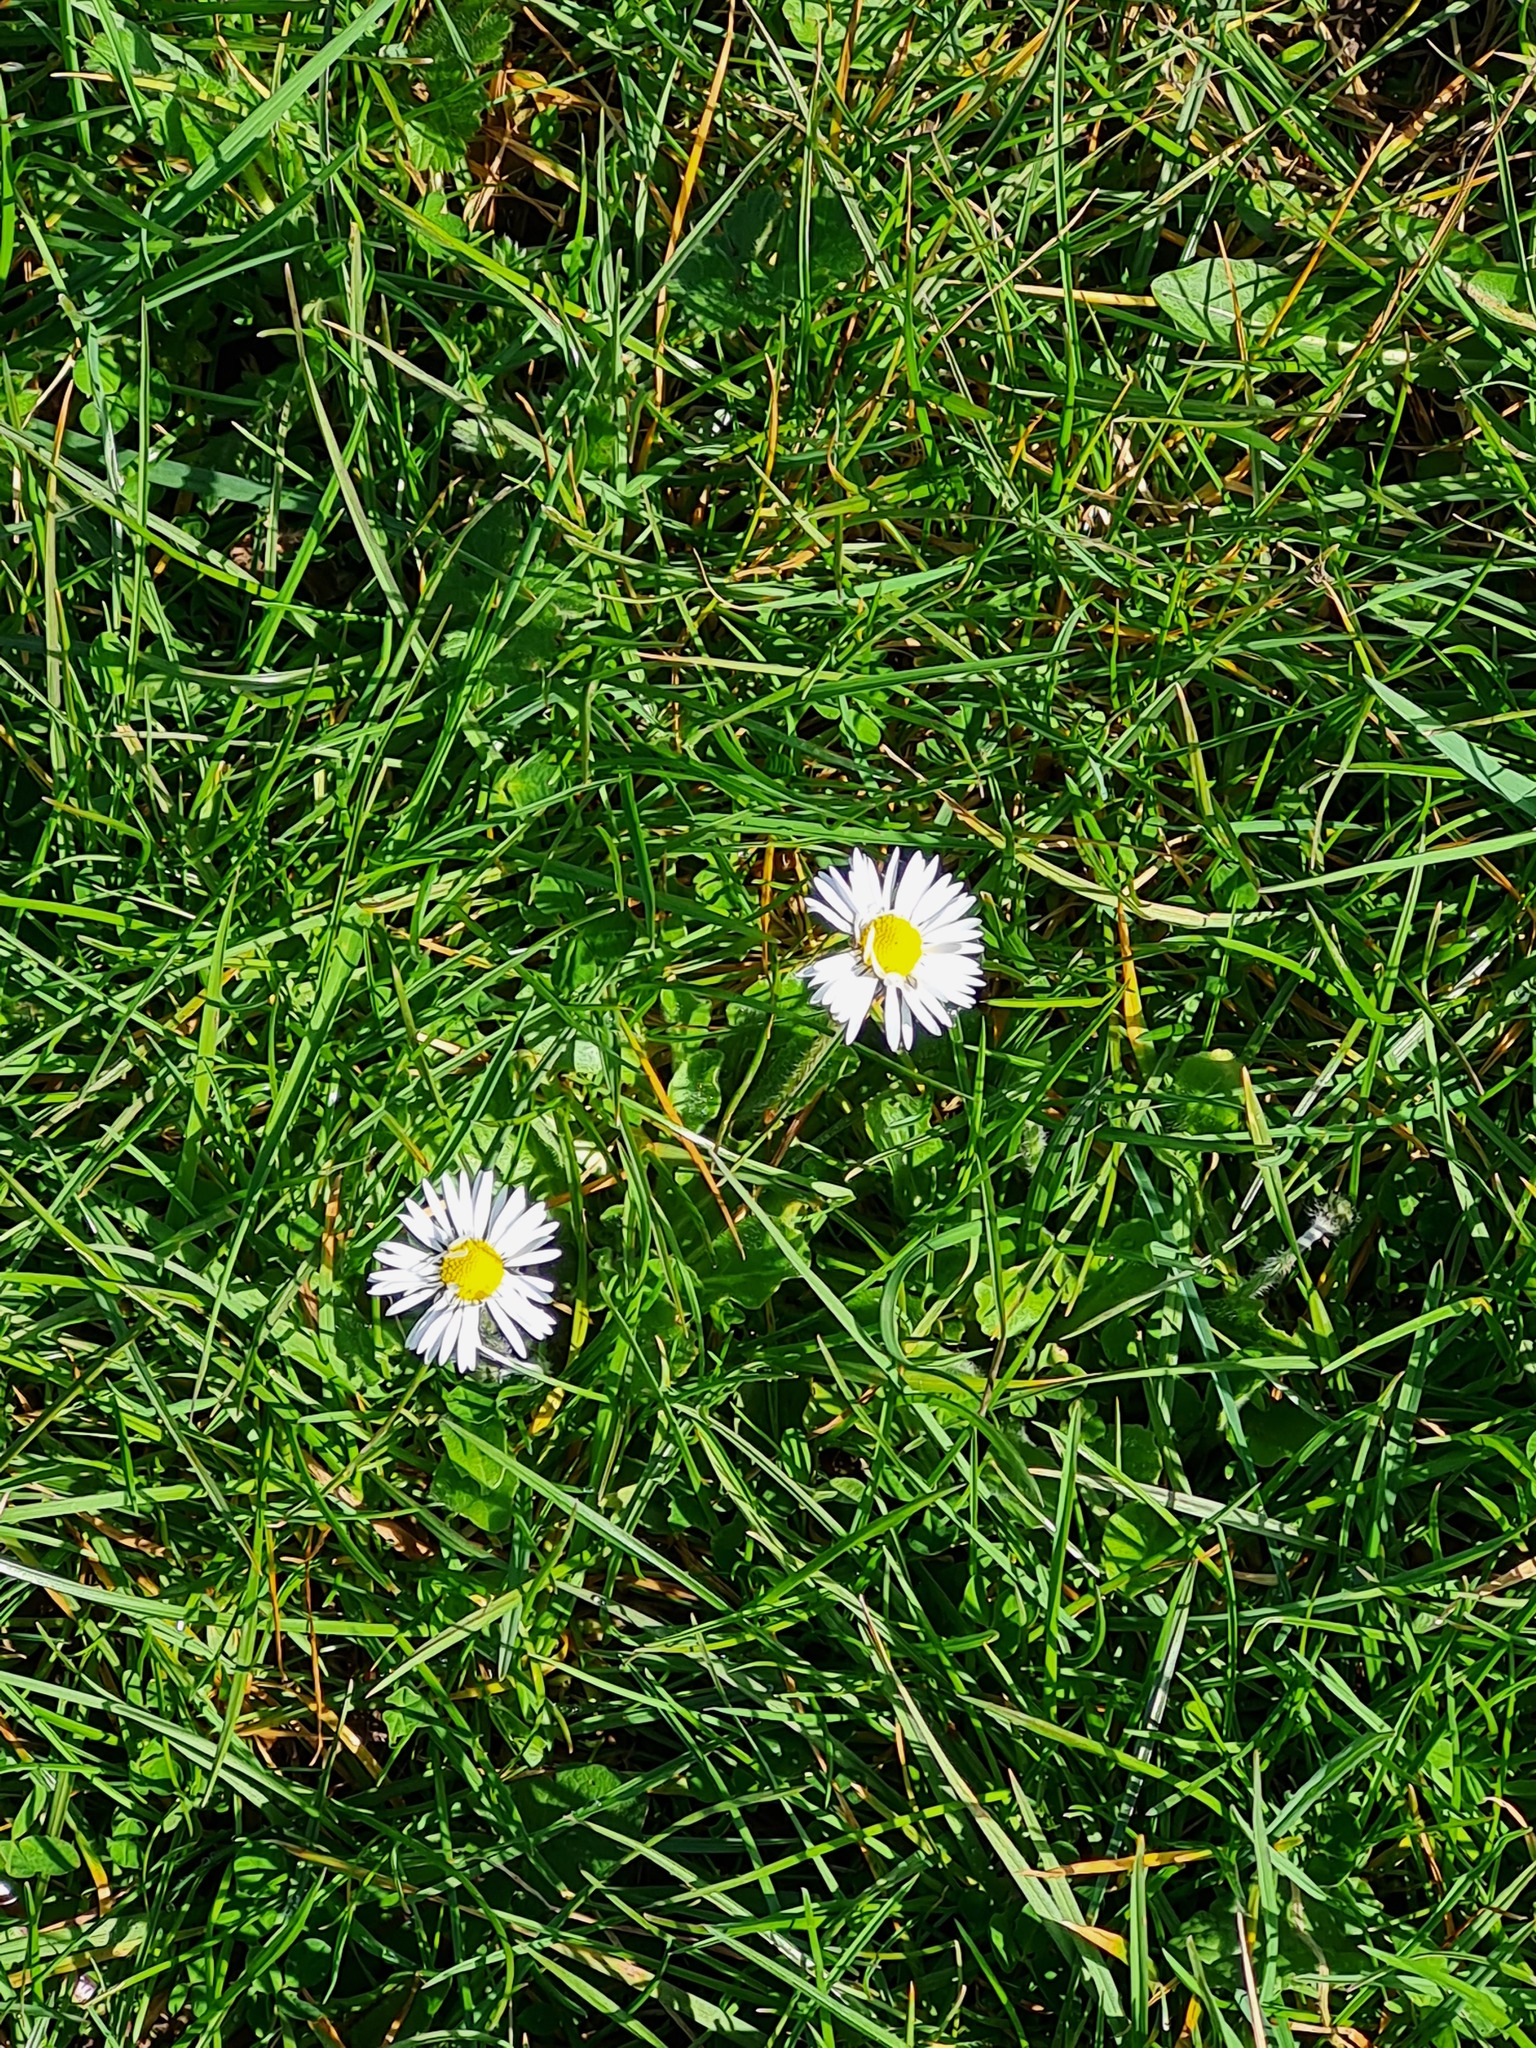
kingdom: Plantae
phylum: Tracheophyta
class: Magnoliopsida
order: Asterales
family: Asteraceae
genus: Bellis
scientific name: Bellis perennis
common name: Lawndaisy
